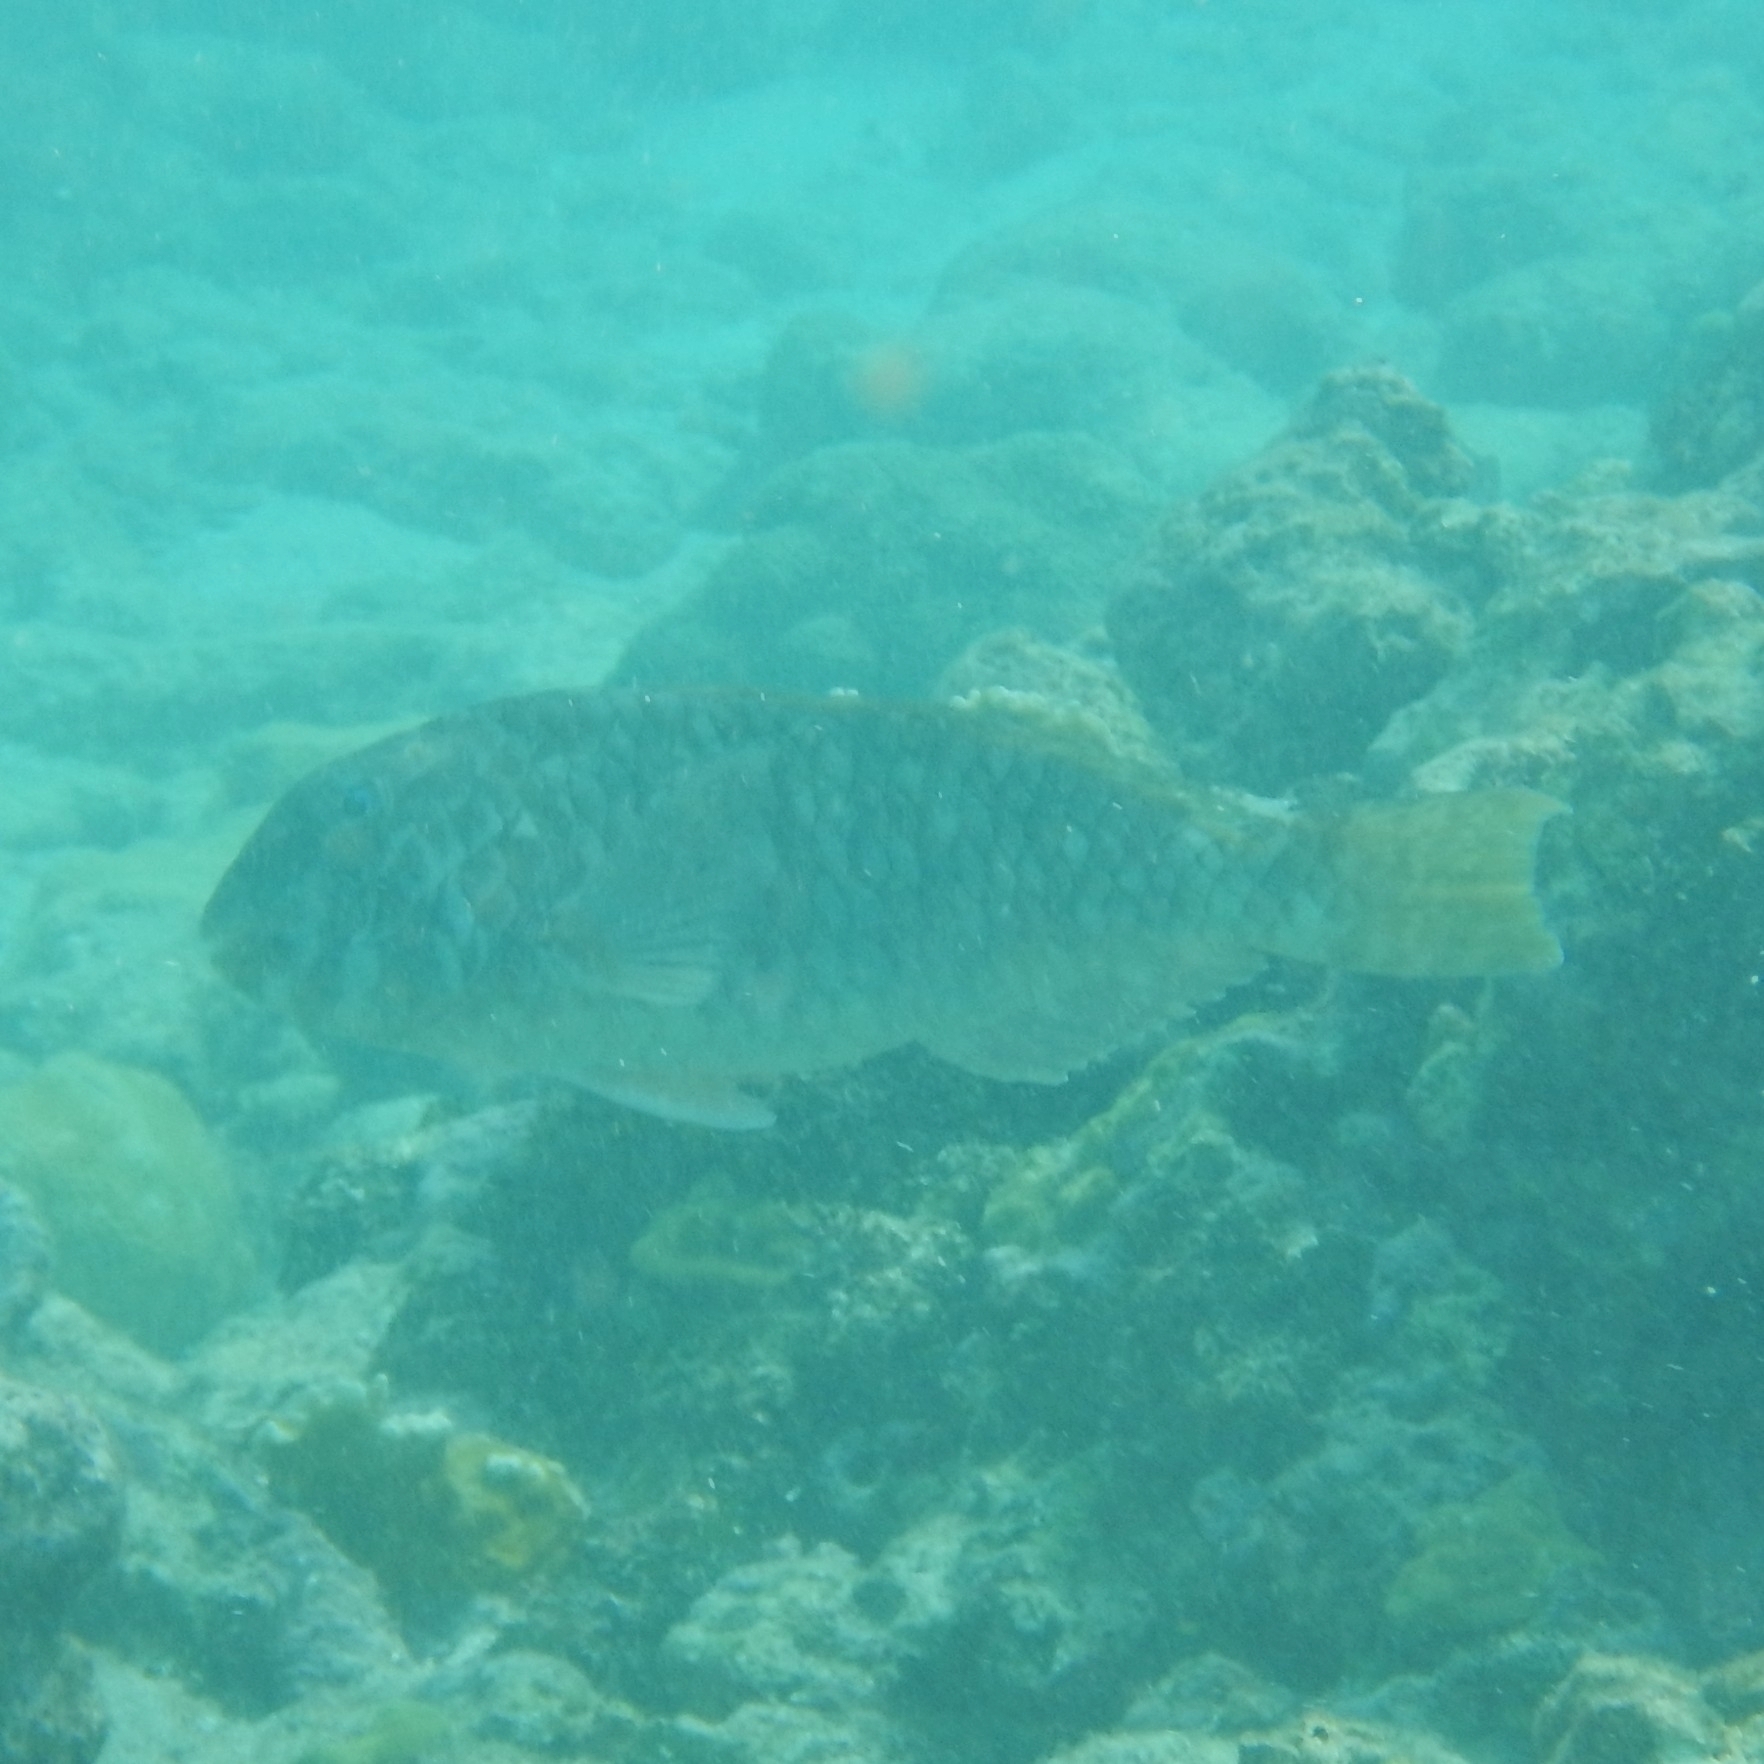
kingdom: Animalia
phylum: Chordata
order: Perciformes
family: Scaridae
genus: Sparisoma
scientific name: Sparisoma rubripinne
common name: Redfin parrotfish
